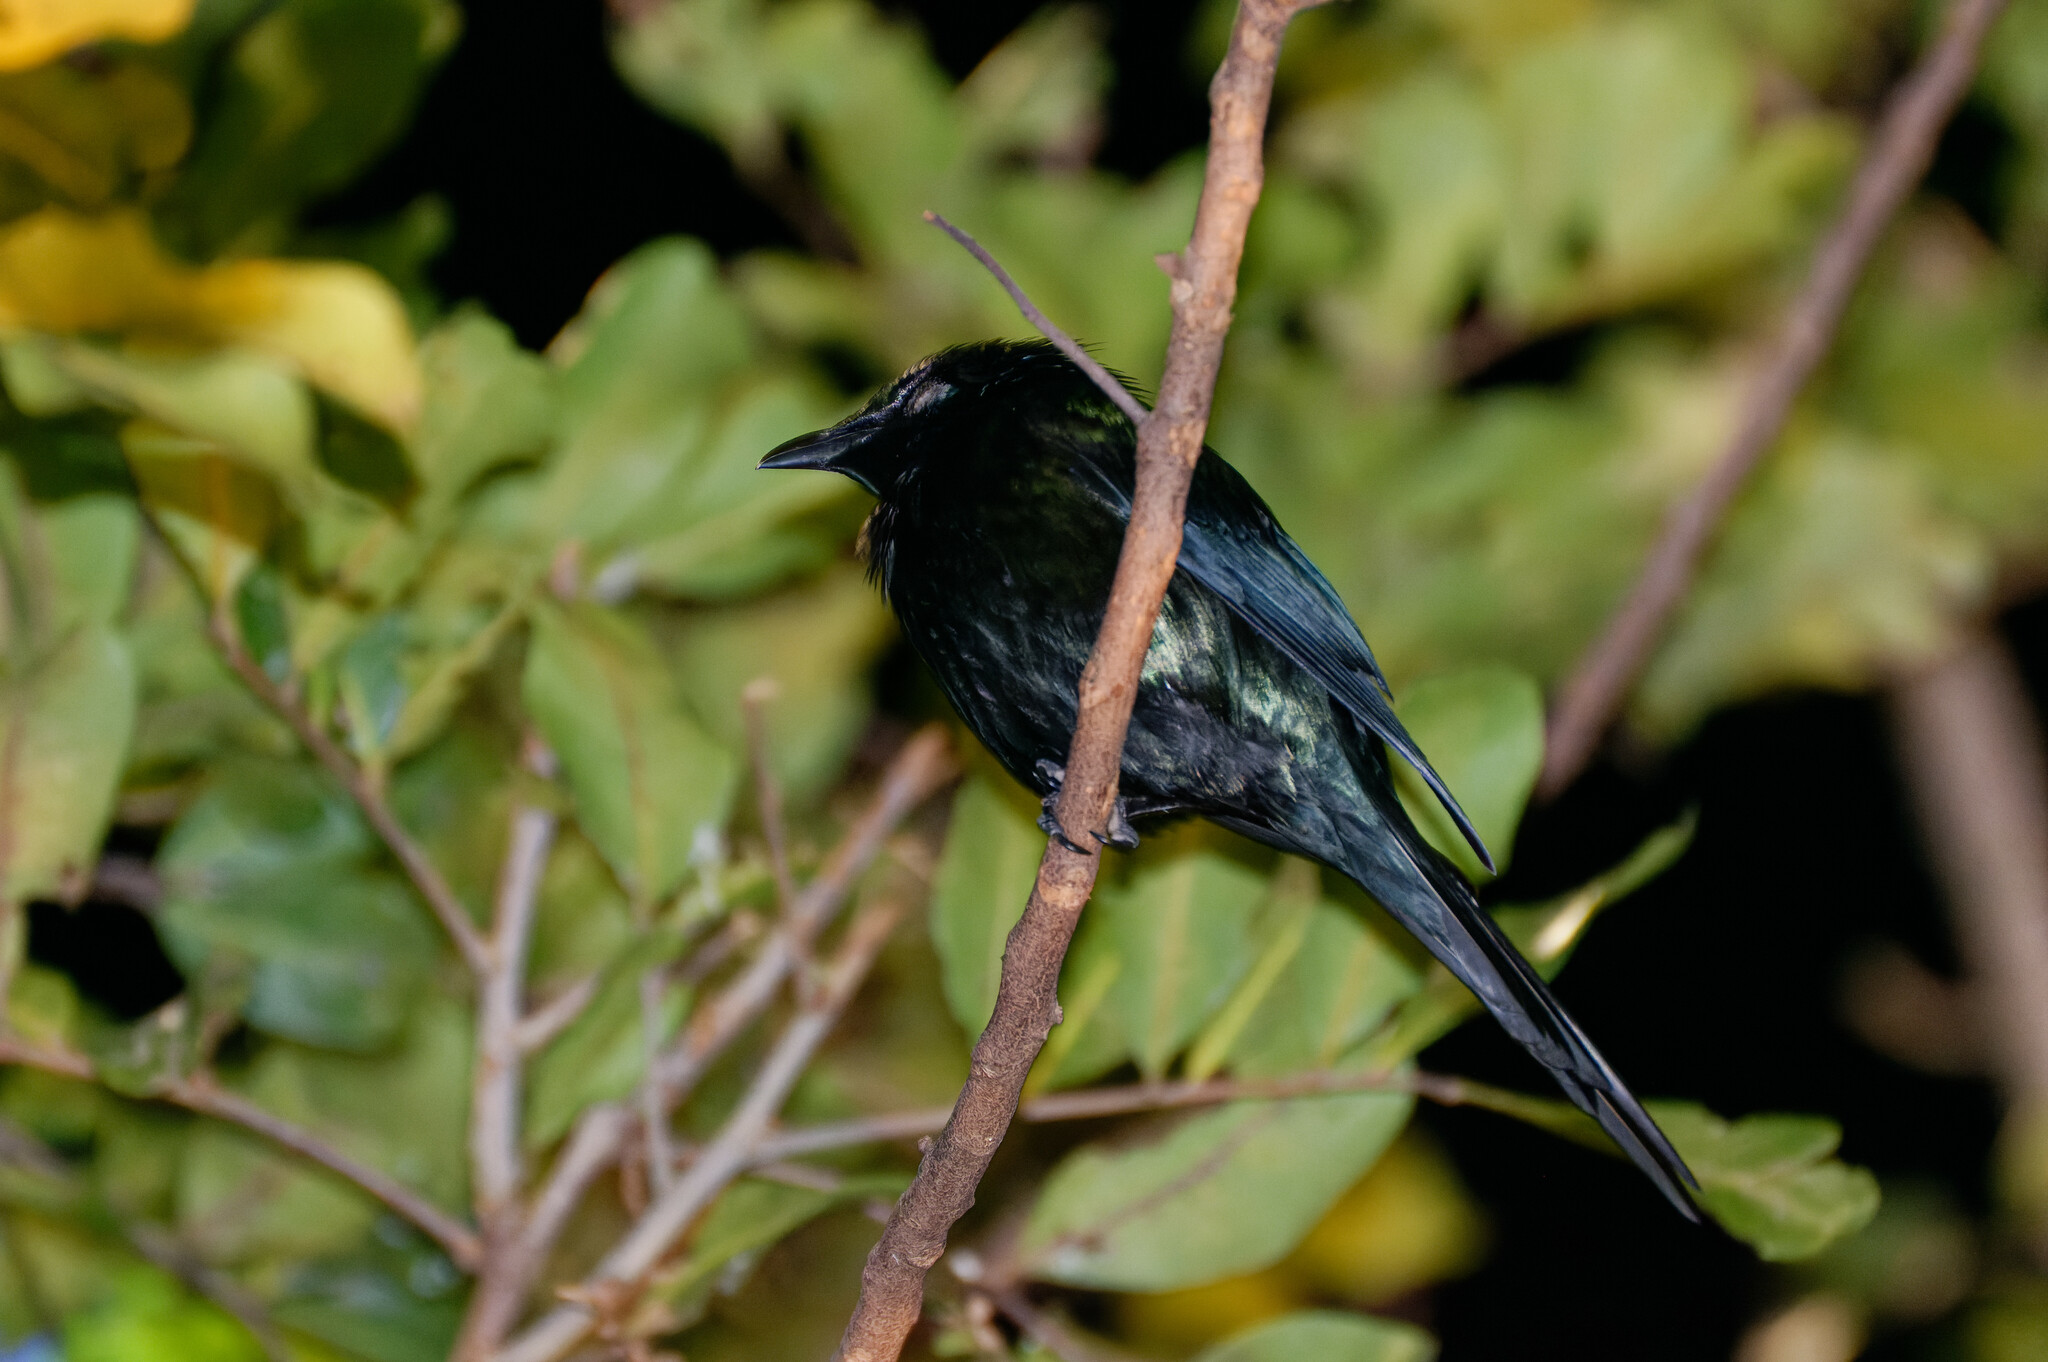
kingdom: Animalia
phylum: Chordata
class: Aves
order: Passeriformes
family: Sturnidae
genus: Aplonis
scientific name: Aplonis metallica
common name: Metallic starling
